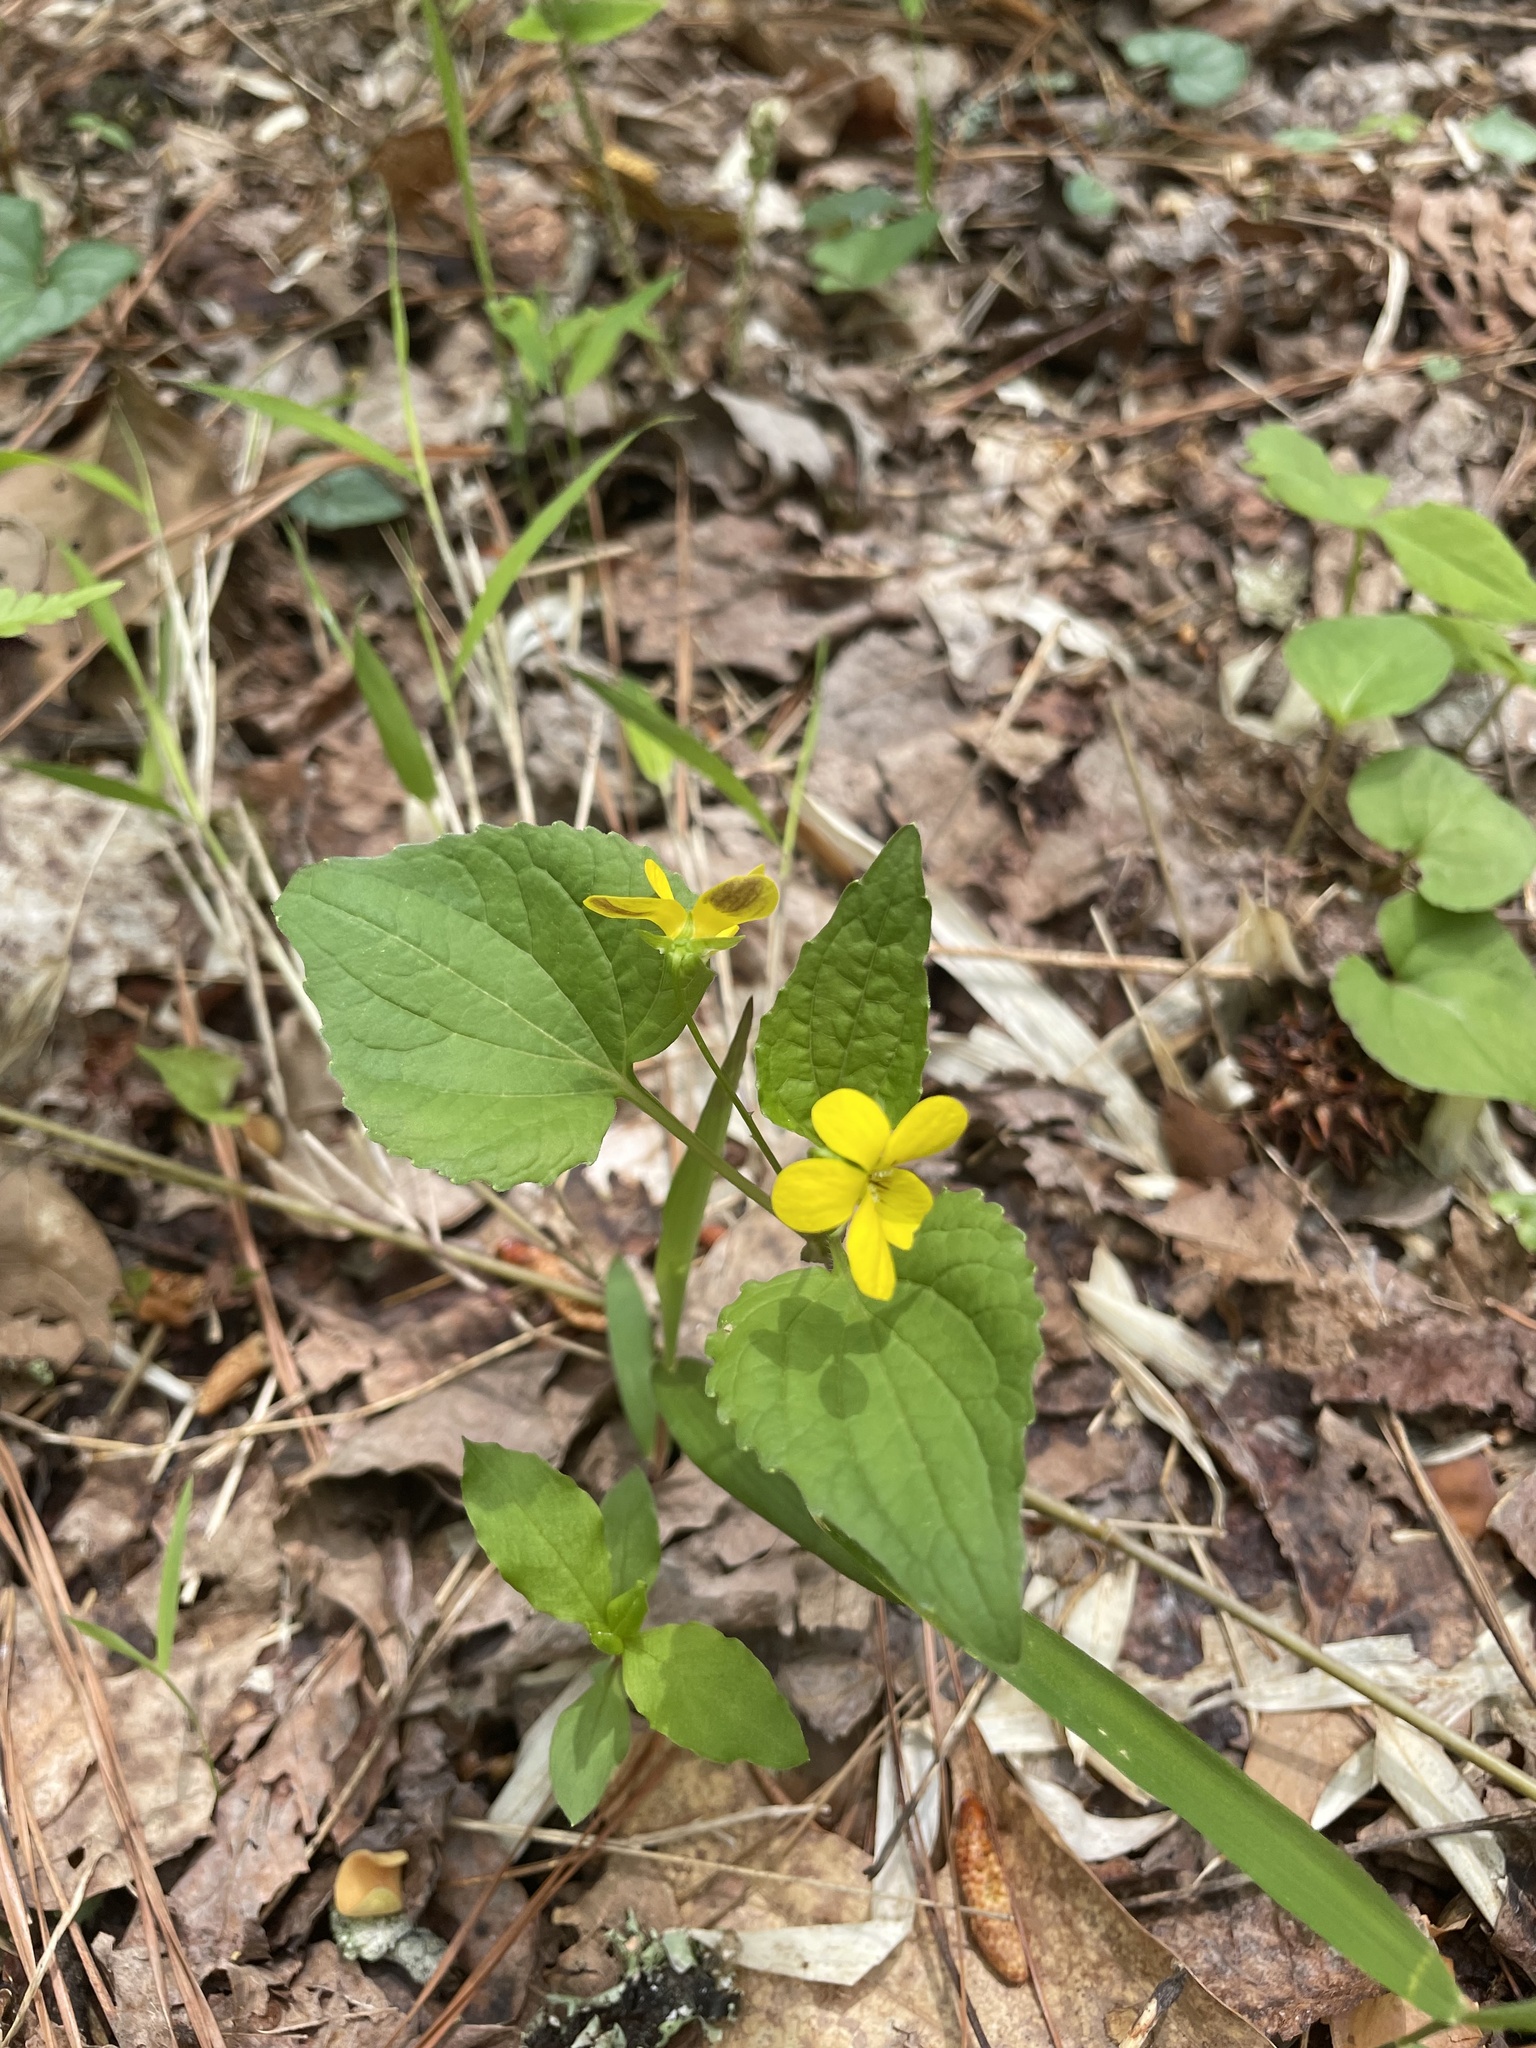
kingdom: Plantae
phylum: Tracheophyta
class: Magnoliopsida
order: Malpighiales
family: Violaceae
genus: Viola
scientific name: Viola eriocarpa
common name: Smooth yellow violet
